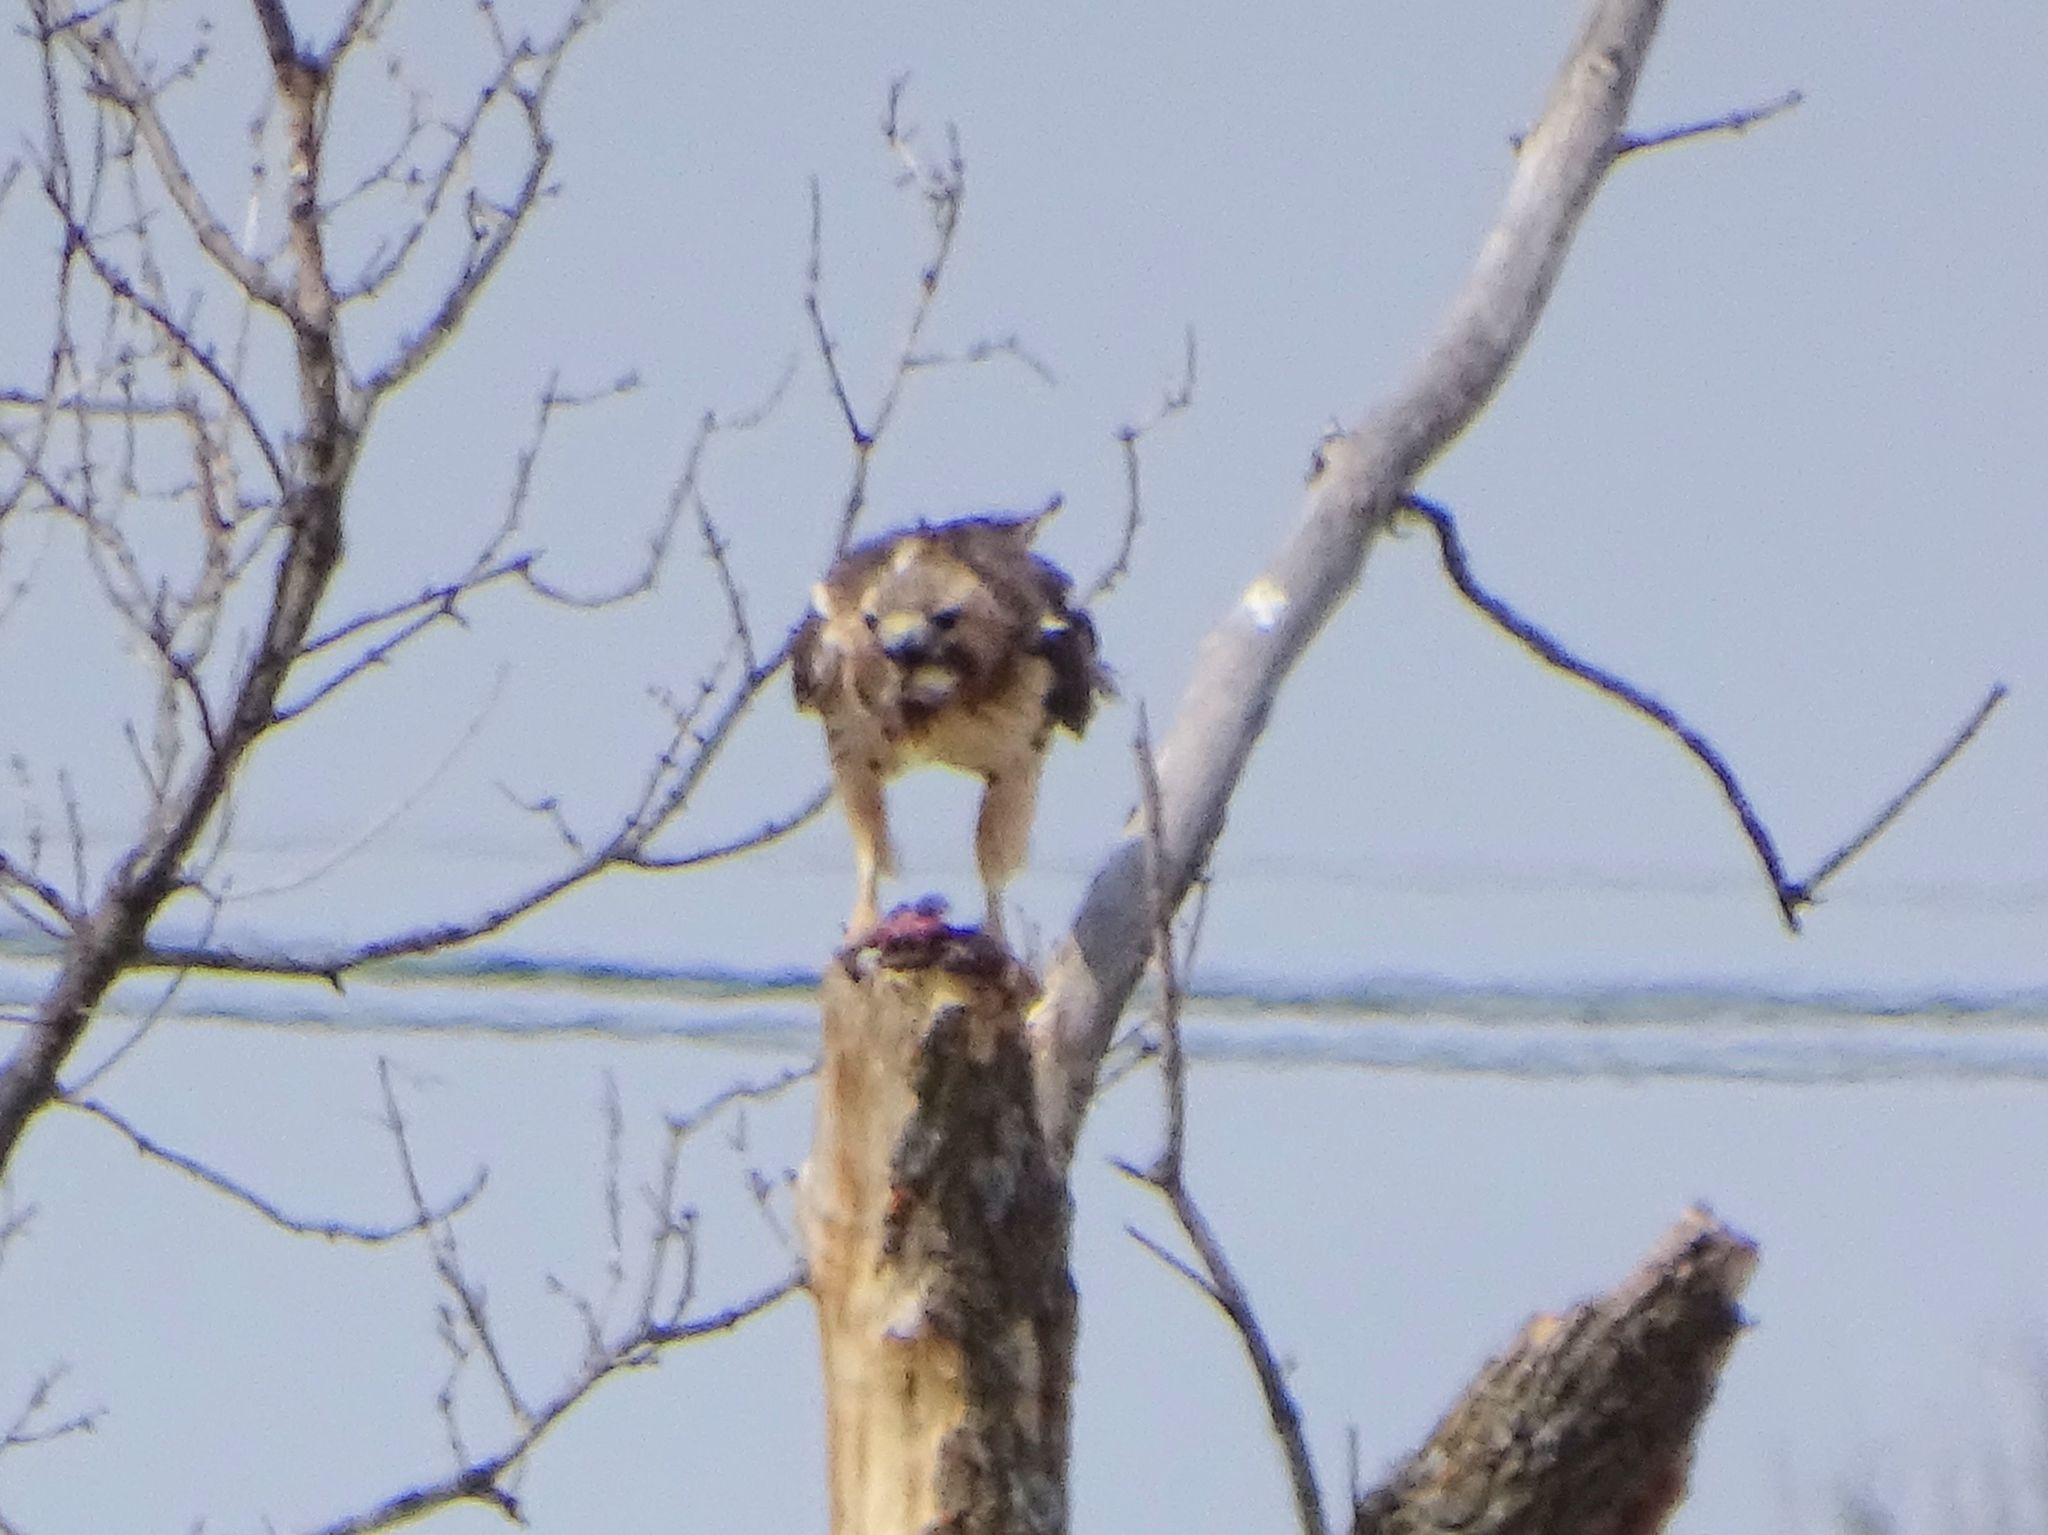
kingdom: Animalia
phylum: Chordata
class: Aves
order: Accipitriformes
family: Accipitridae
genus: Buteo
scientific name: Buteo jamaicensis
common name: Red-tailed hawk
